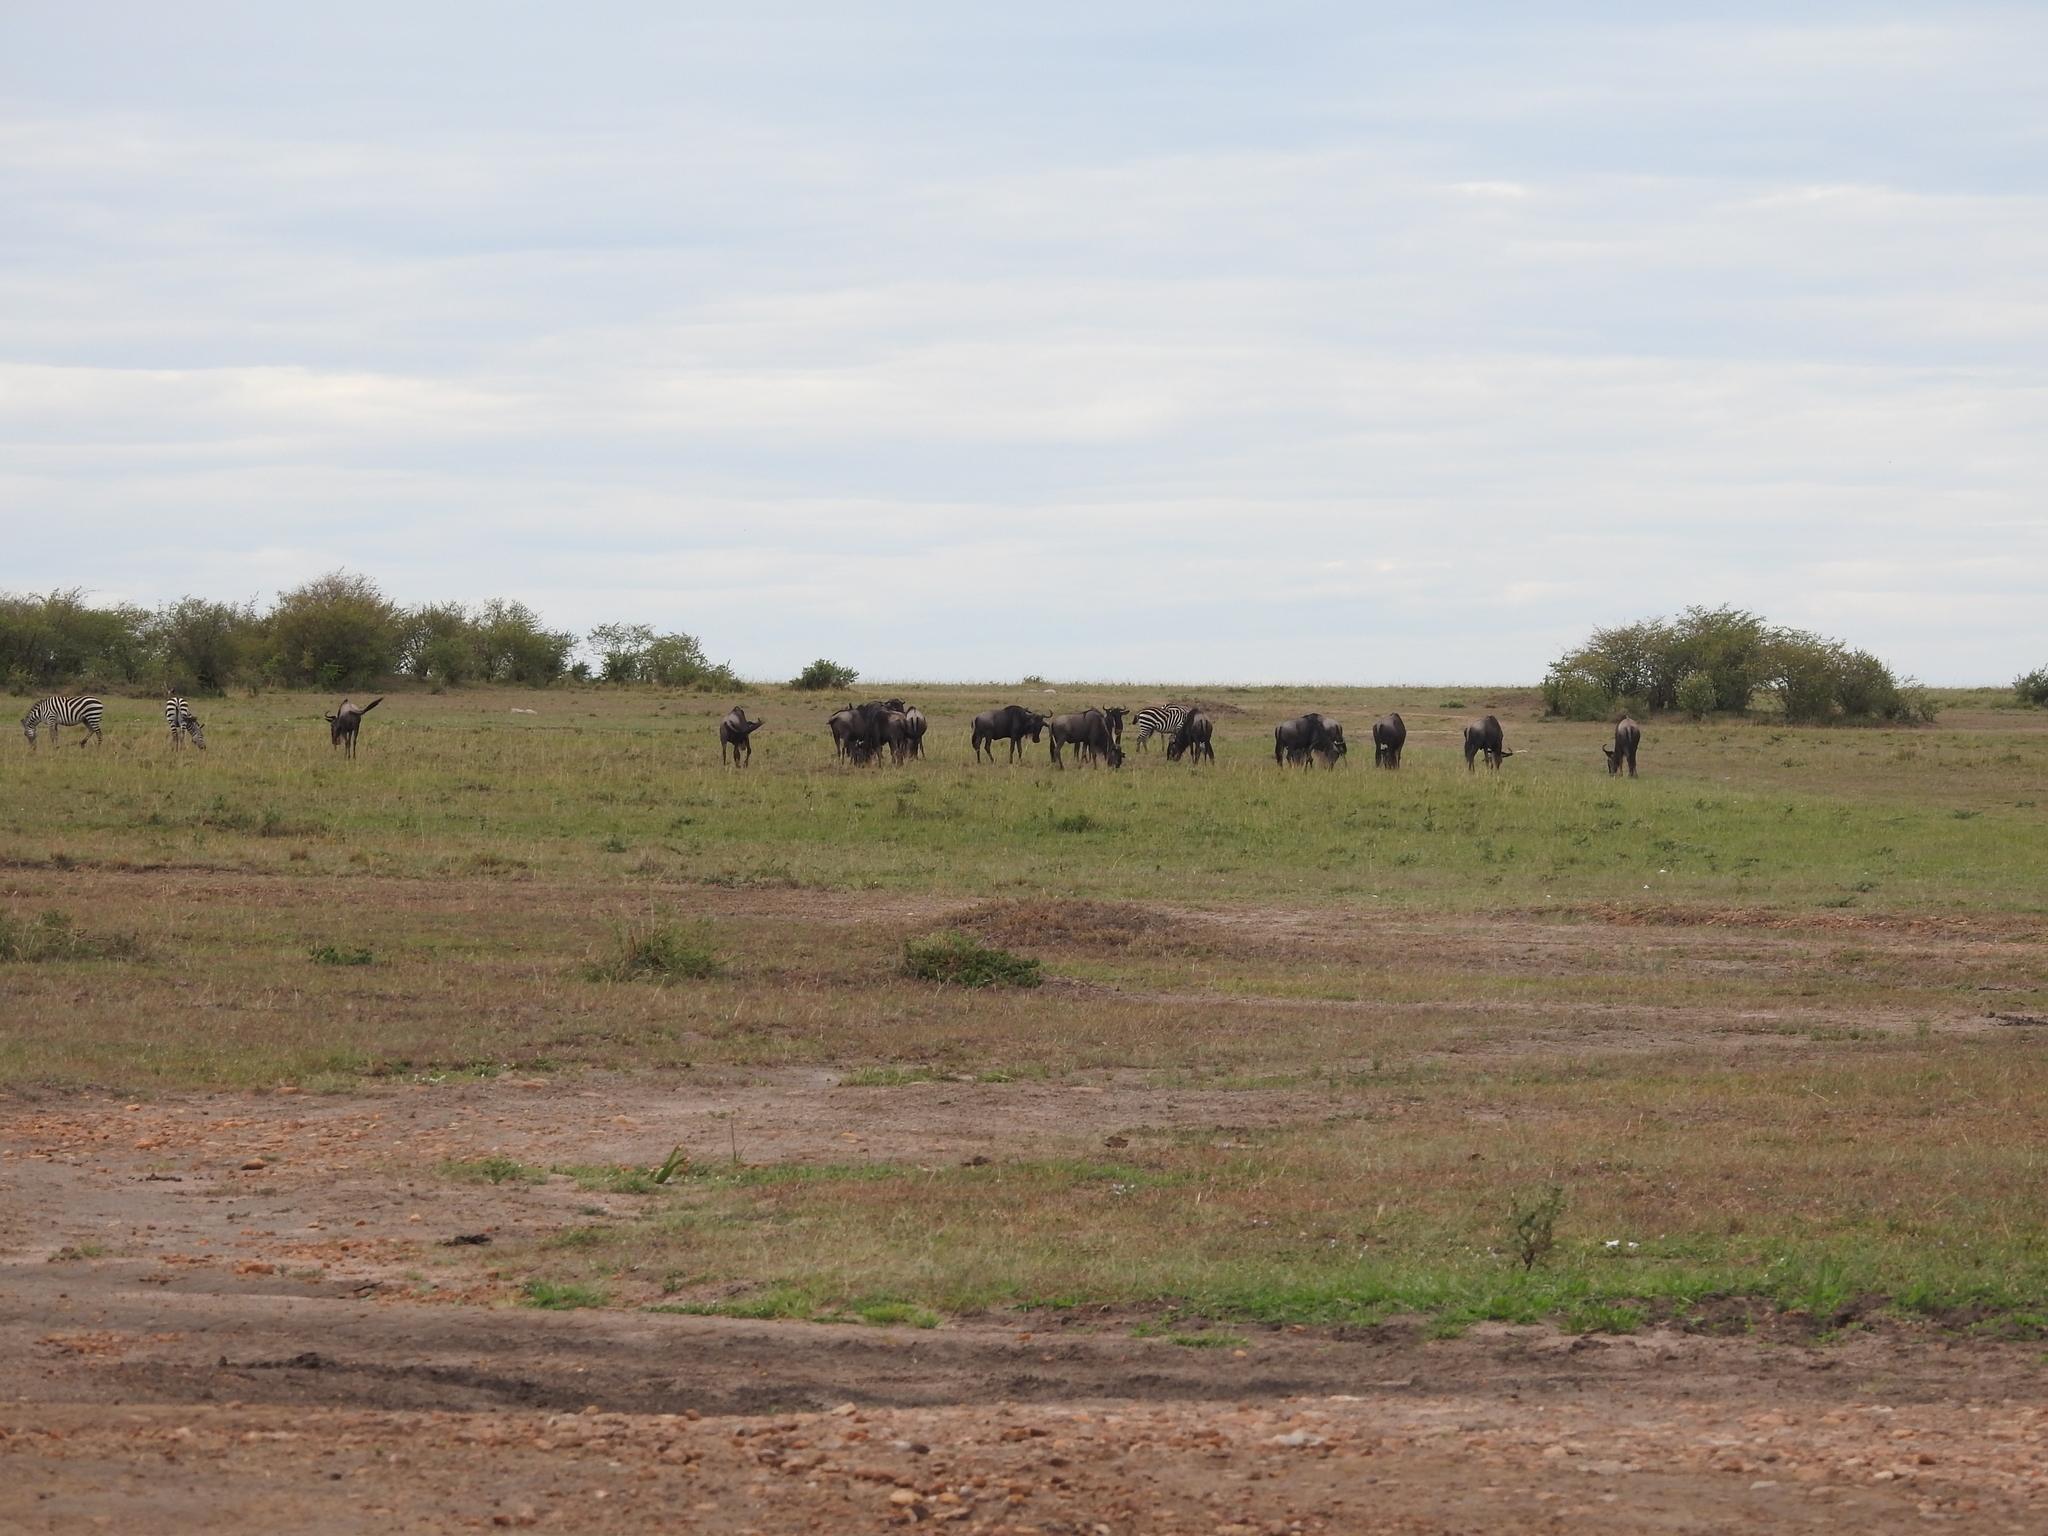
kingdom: Animalia
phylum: Chordata
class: Mammalia
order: Perissodactyla
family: Equidae
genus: Equus
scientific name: Equus quagga
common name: Plains zebra
